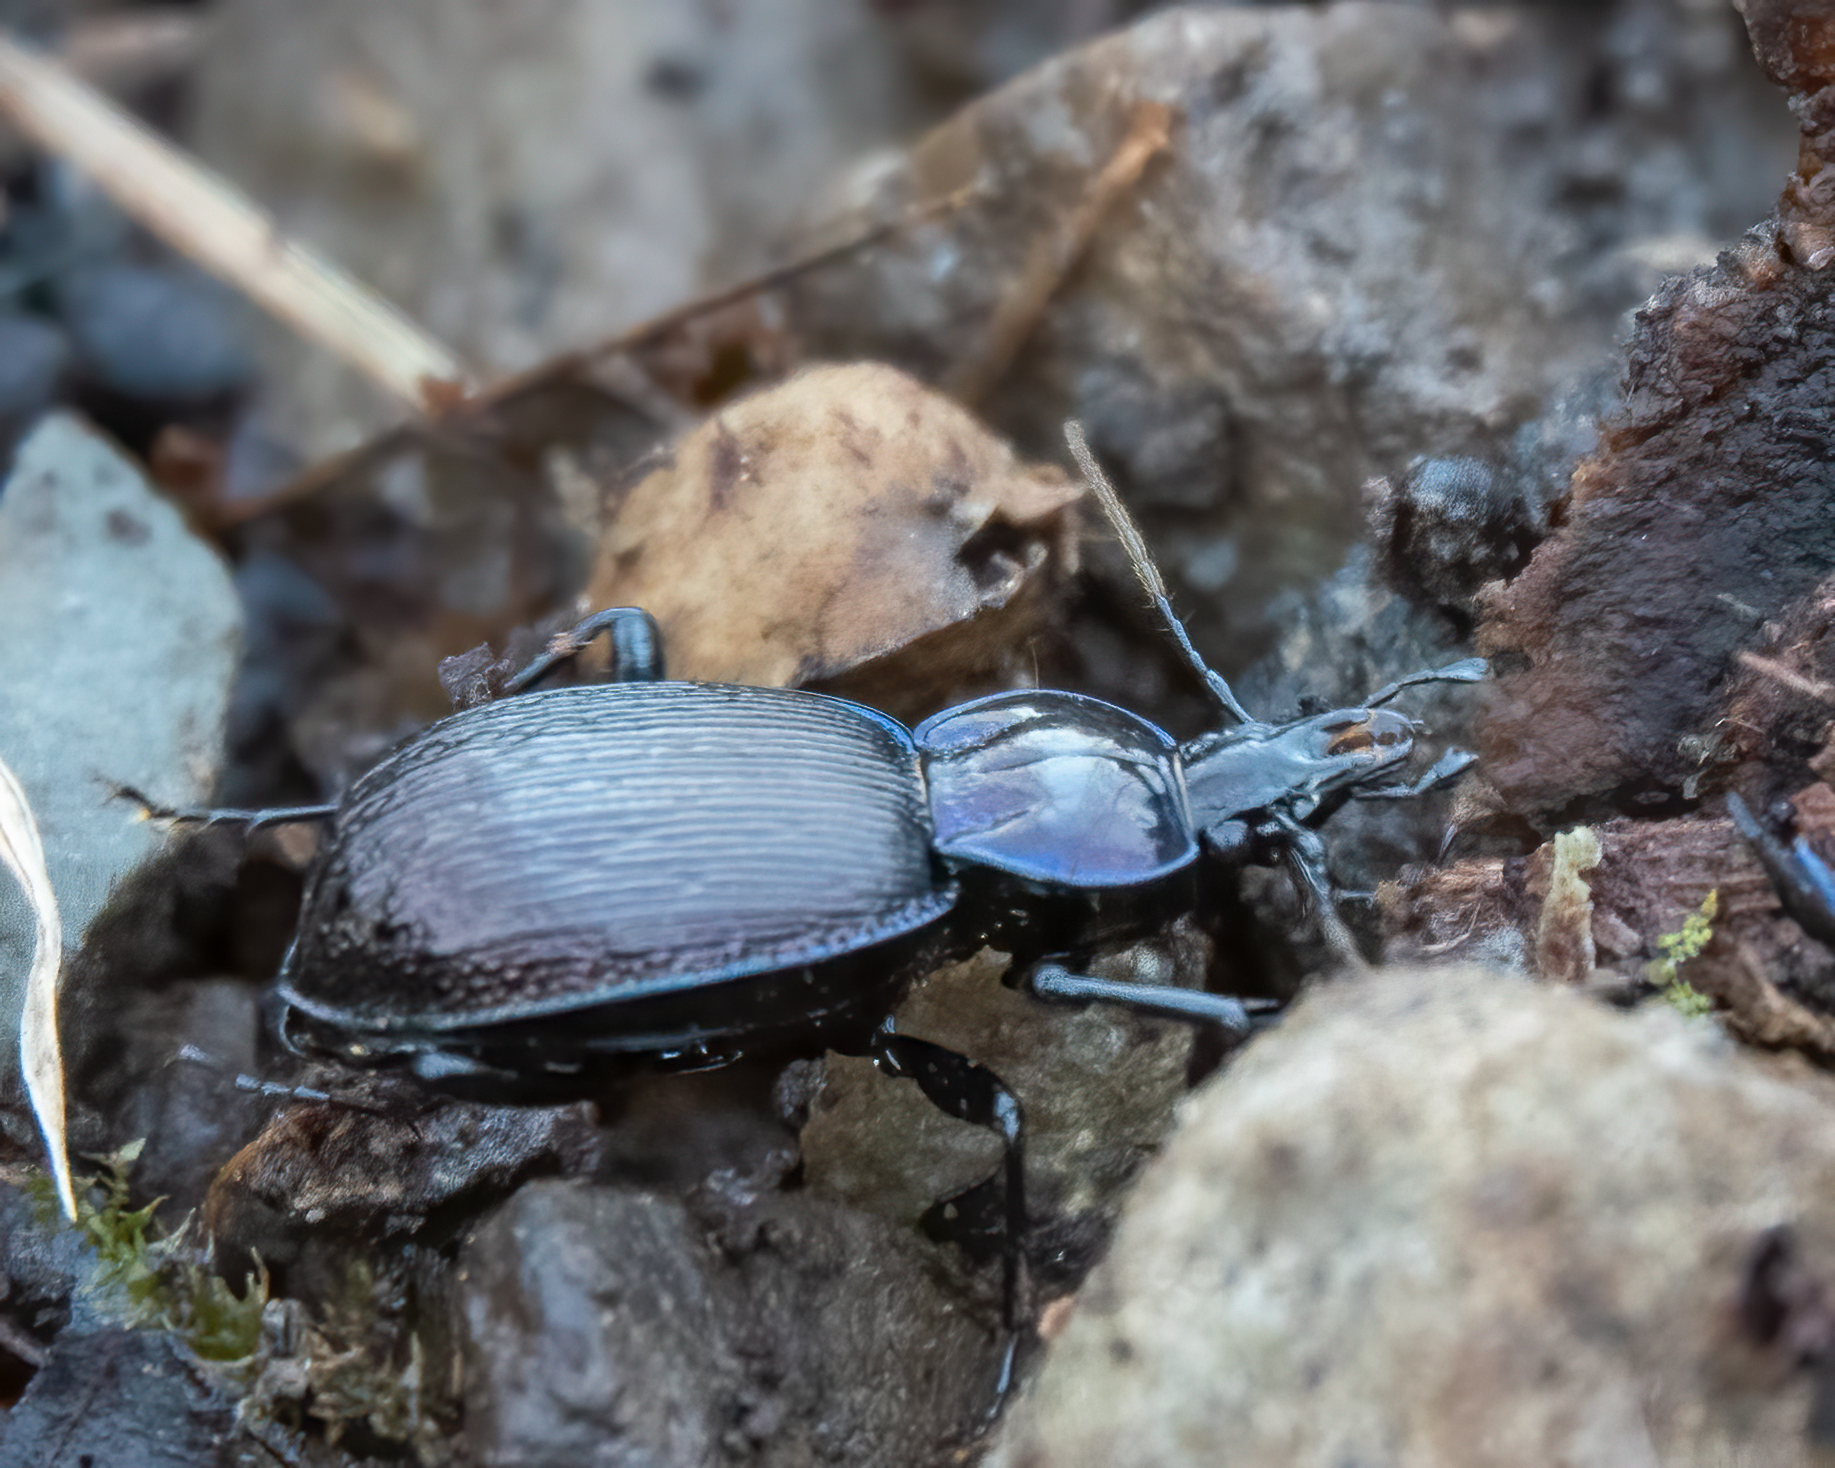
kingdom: Animalia
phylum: Arthropoda
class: Insecta
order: Coleoptera
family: Carabidae
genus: Sphaeroderus
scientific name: Sphaeroderus stenostomus
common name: Small snail-eating ground beetle
